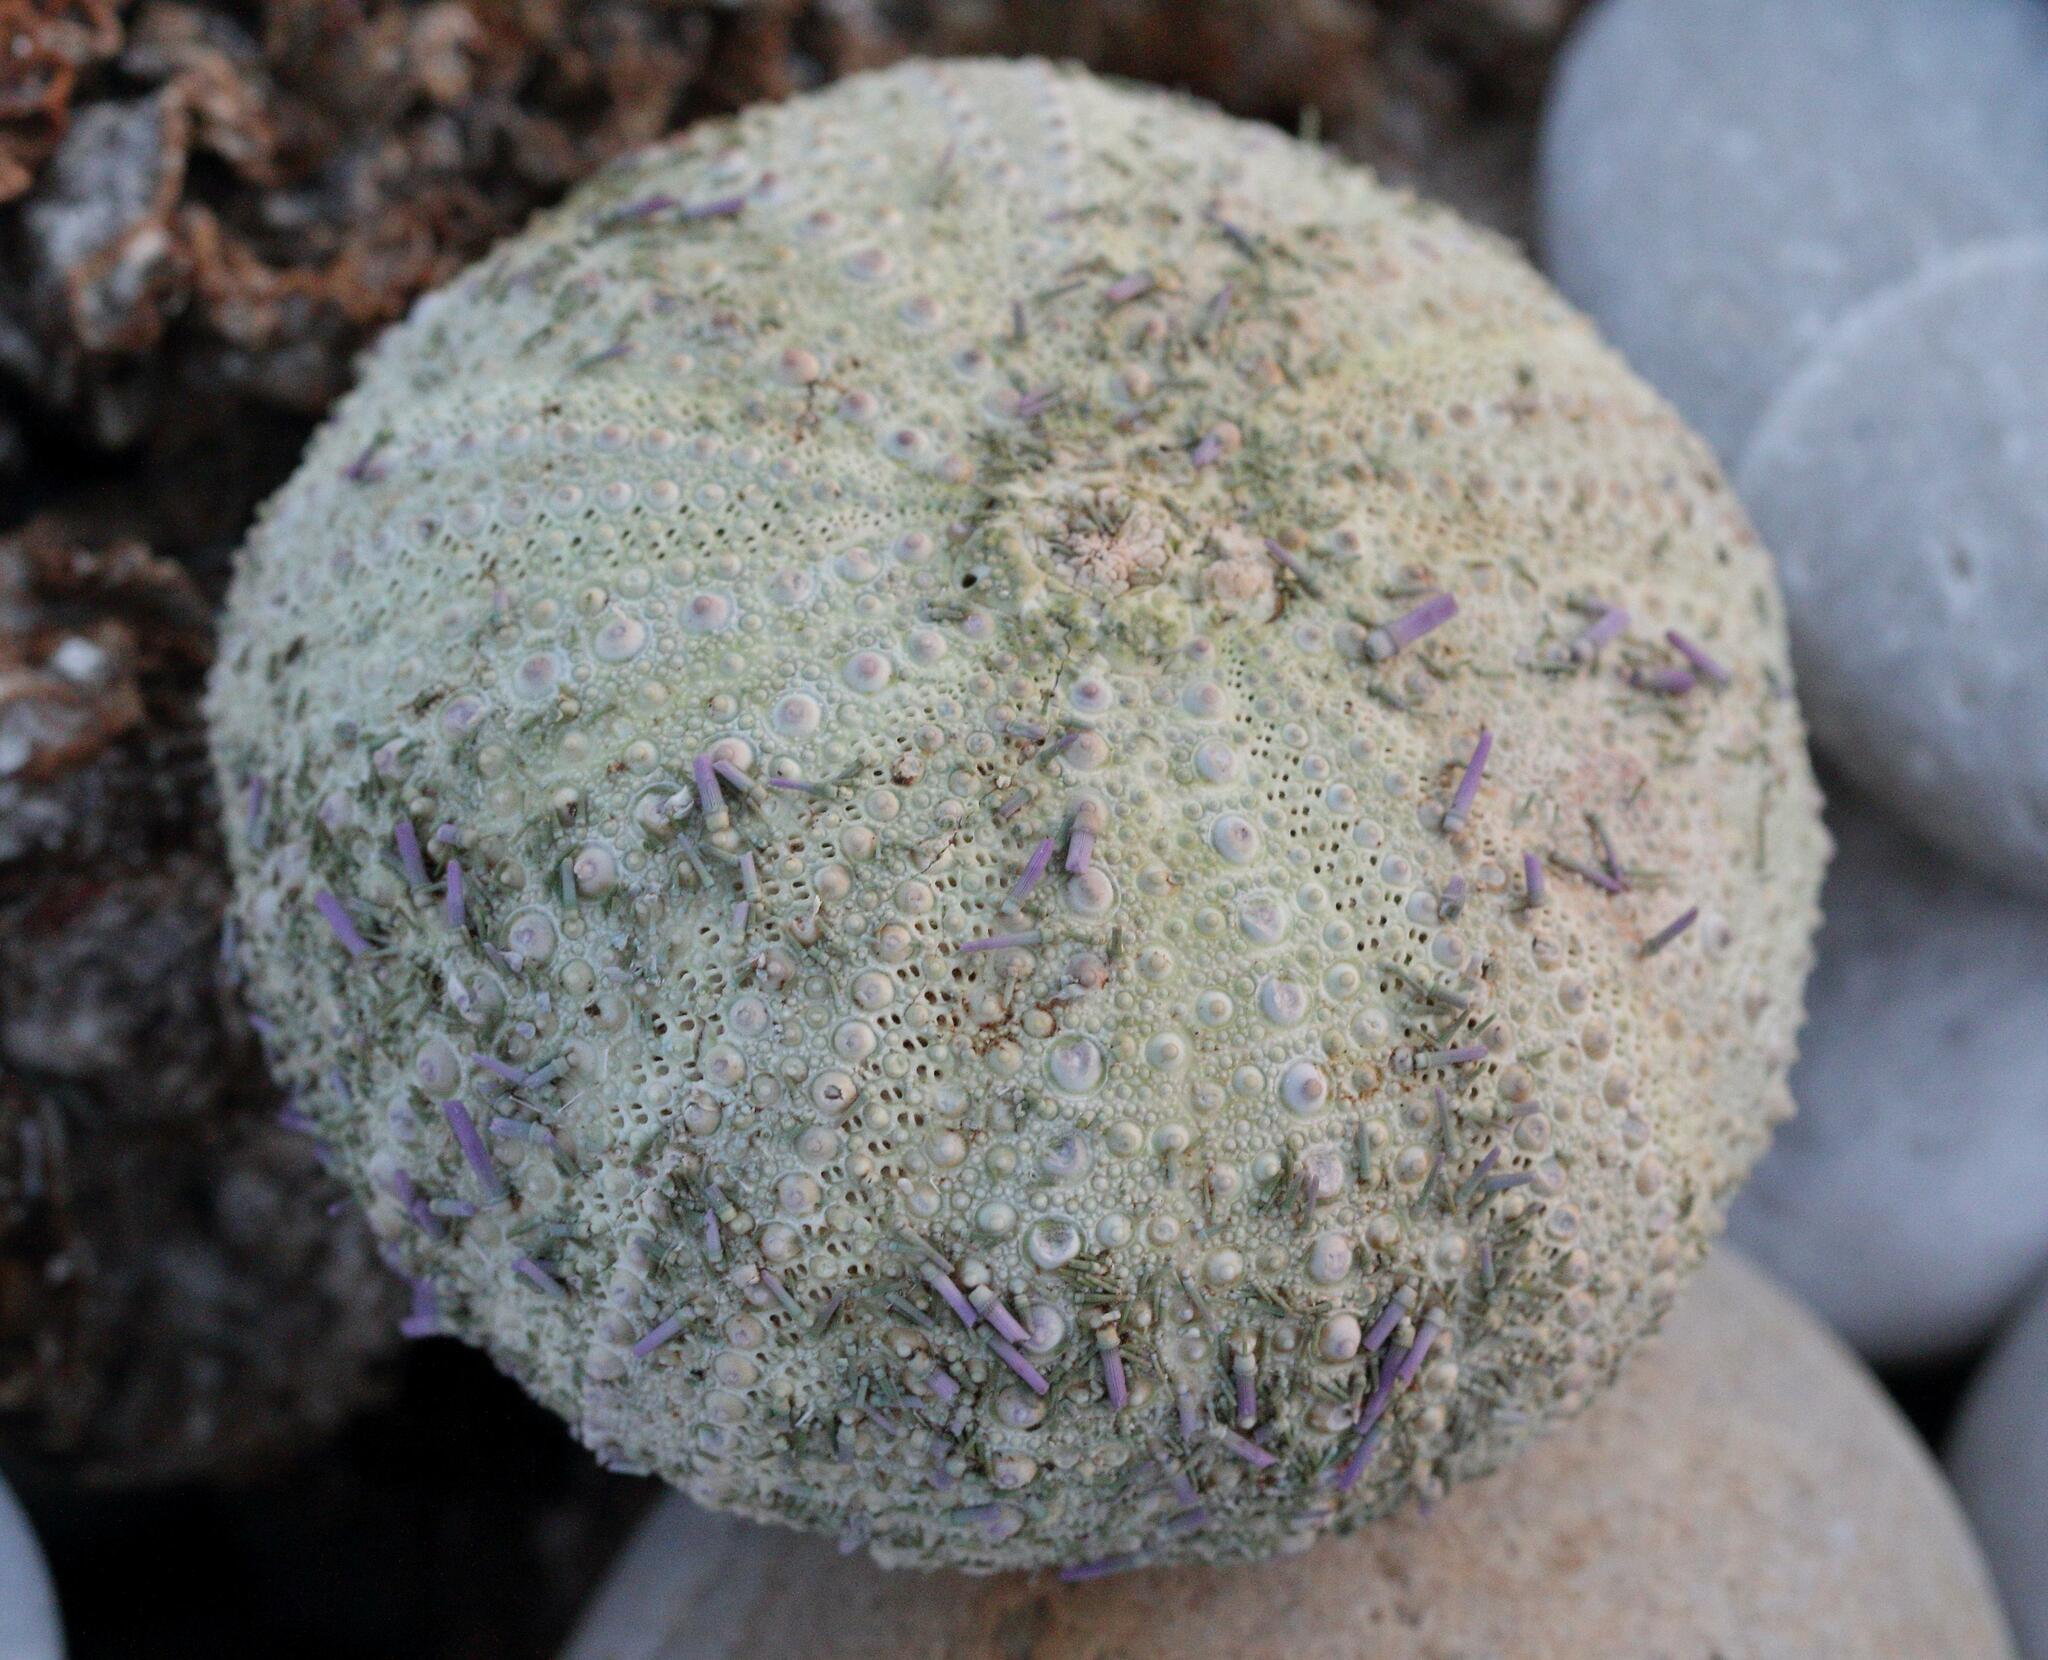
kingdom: Animalia
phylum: Echinodermata
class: Echinoidea
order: Camarodonta
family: Parechinidae
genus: Parechinus
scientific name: Parechinus angulosus
